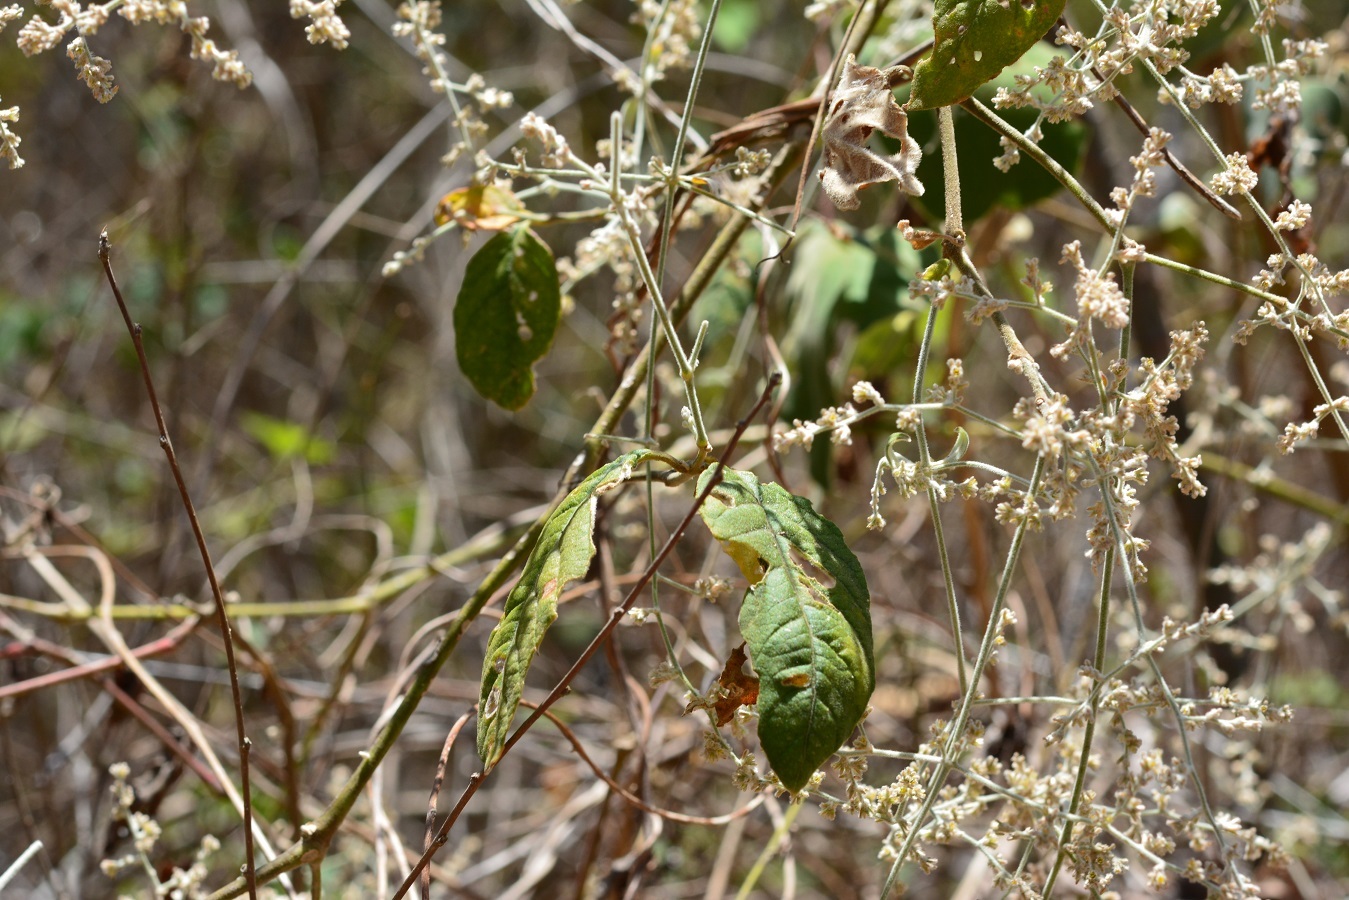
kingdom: Plantae
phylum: Tracheophyta
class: Magnoliopsida
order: Caryophyllales
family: Amaranthaceae
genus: Iresine
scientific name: Iresine latifolia
